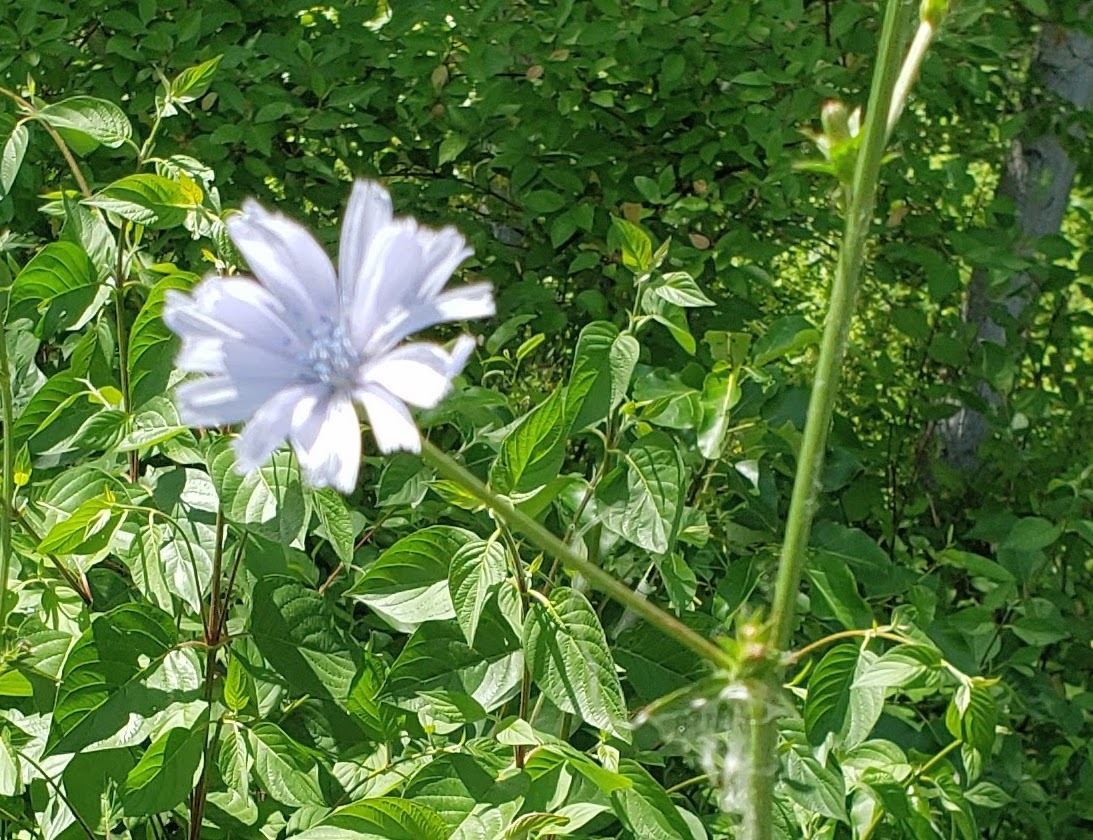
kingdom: Plantae
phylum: Tracheophyta
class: Magnoliopsida
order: Asterales
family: Asteraceae
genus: Cichorium
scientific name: Cichorium intybus
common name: Chicory
